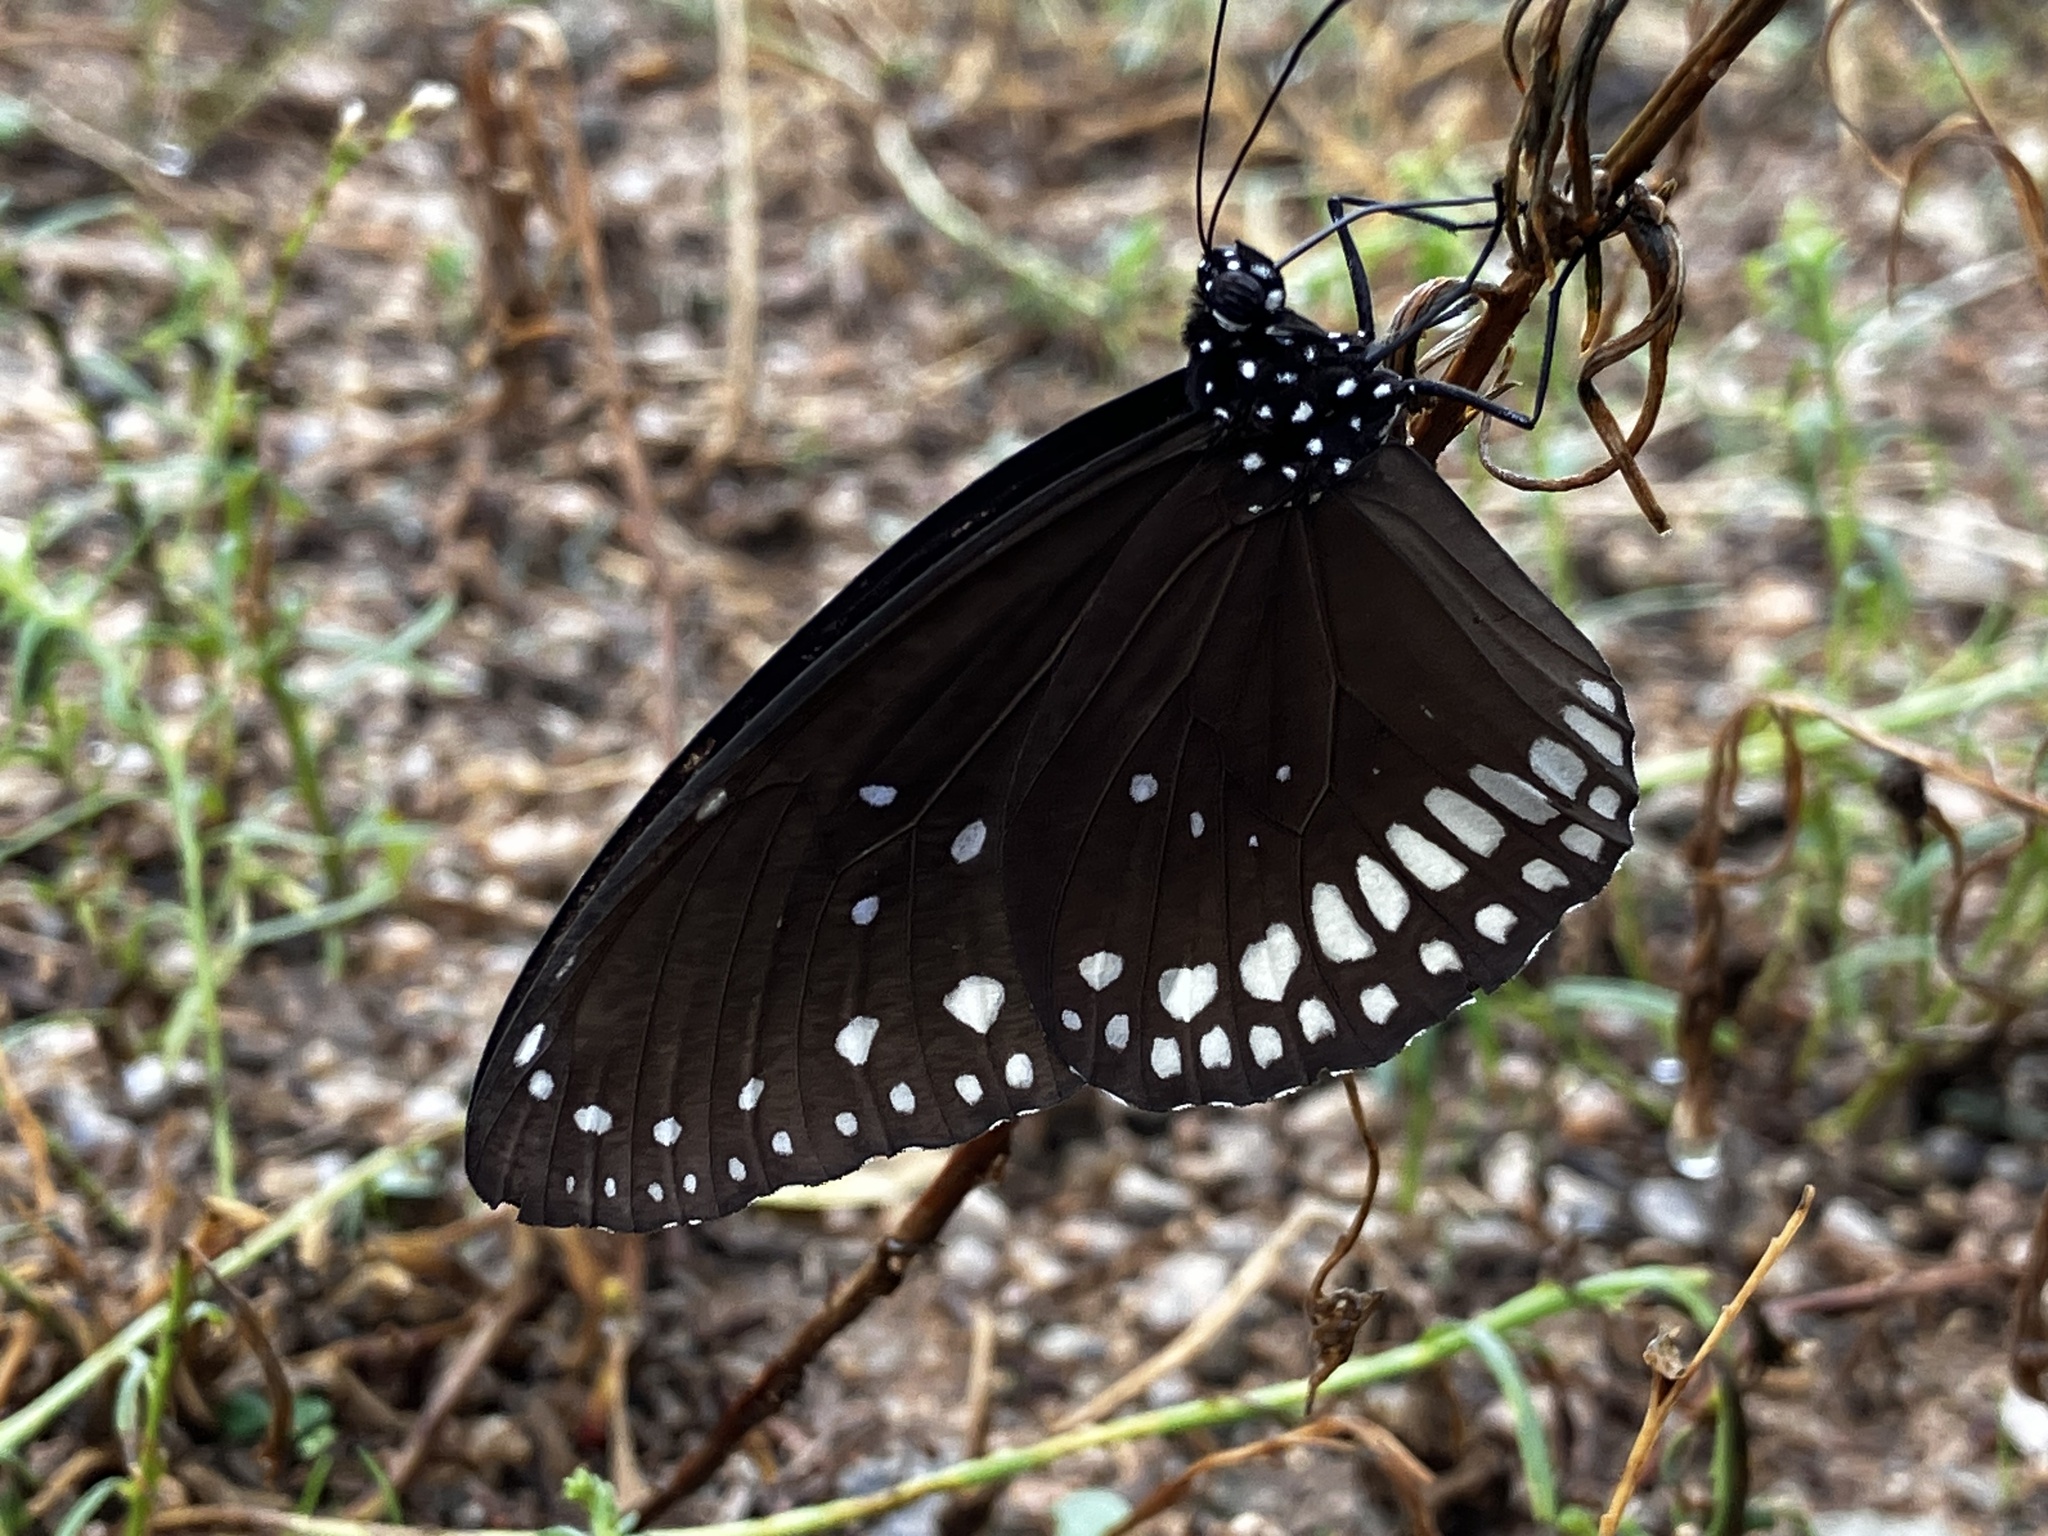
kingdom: Animalia
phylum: Arthropoda
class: Insecta
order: Lepidoptera
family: Nymphalidae
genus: Euploea
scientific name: Euploea core
